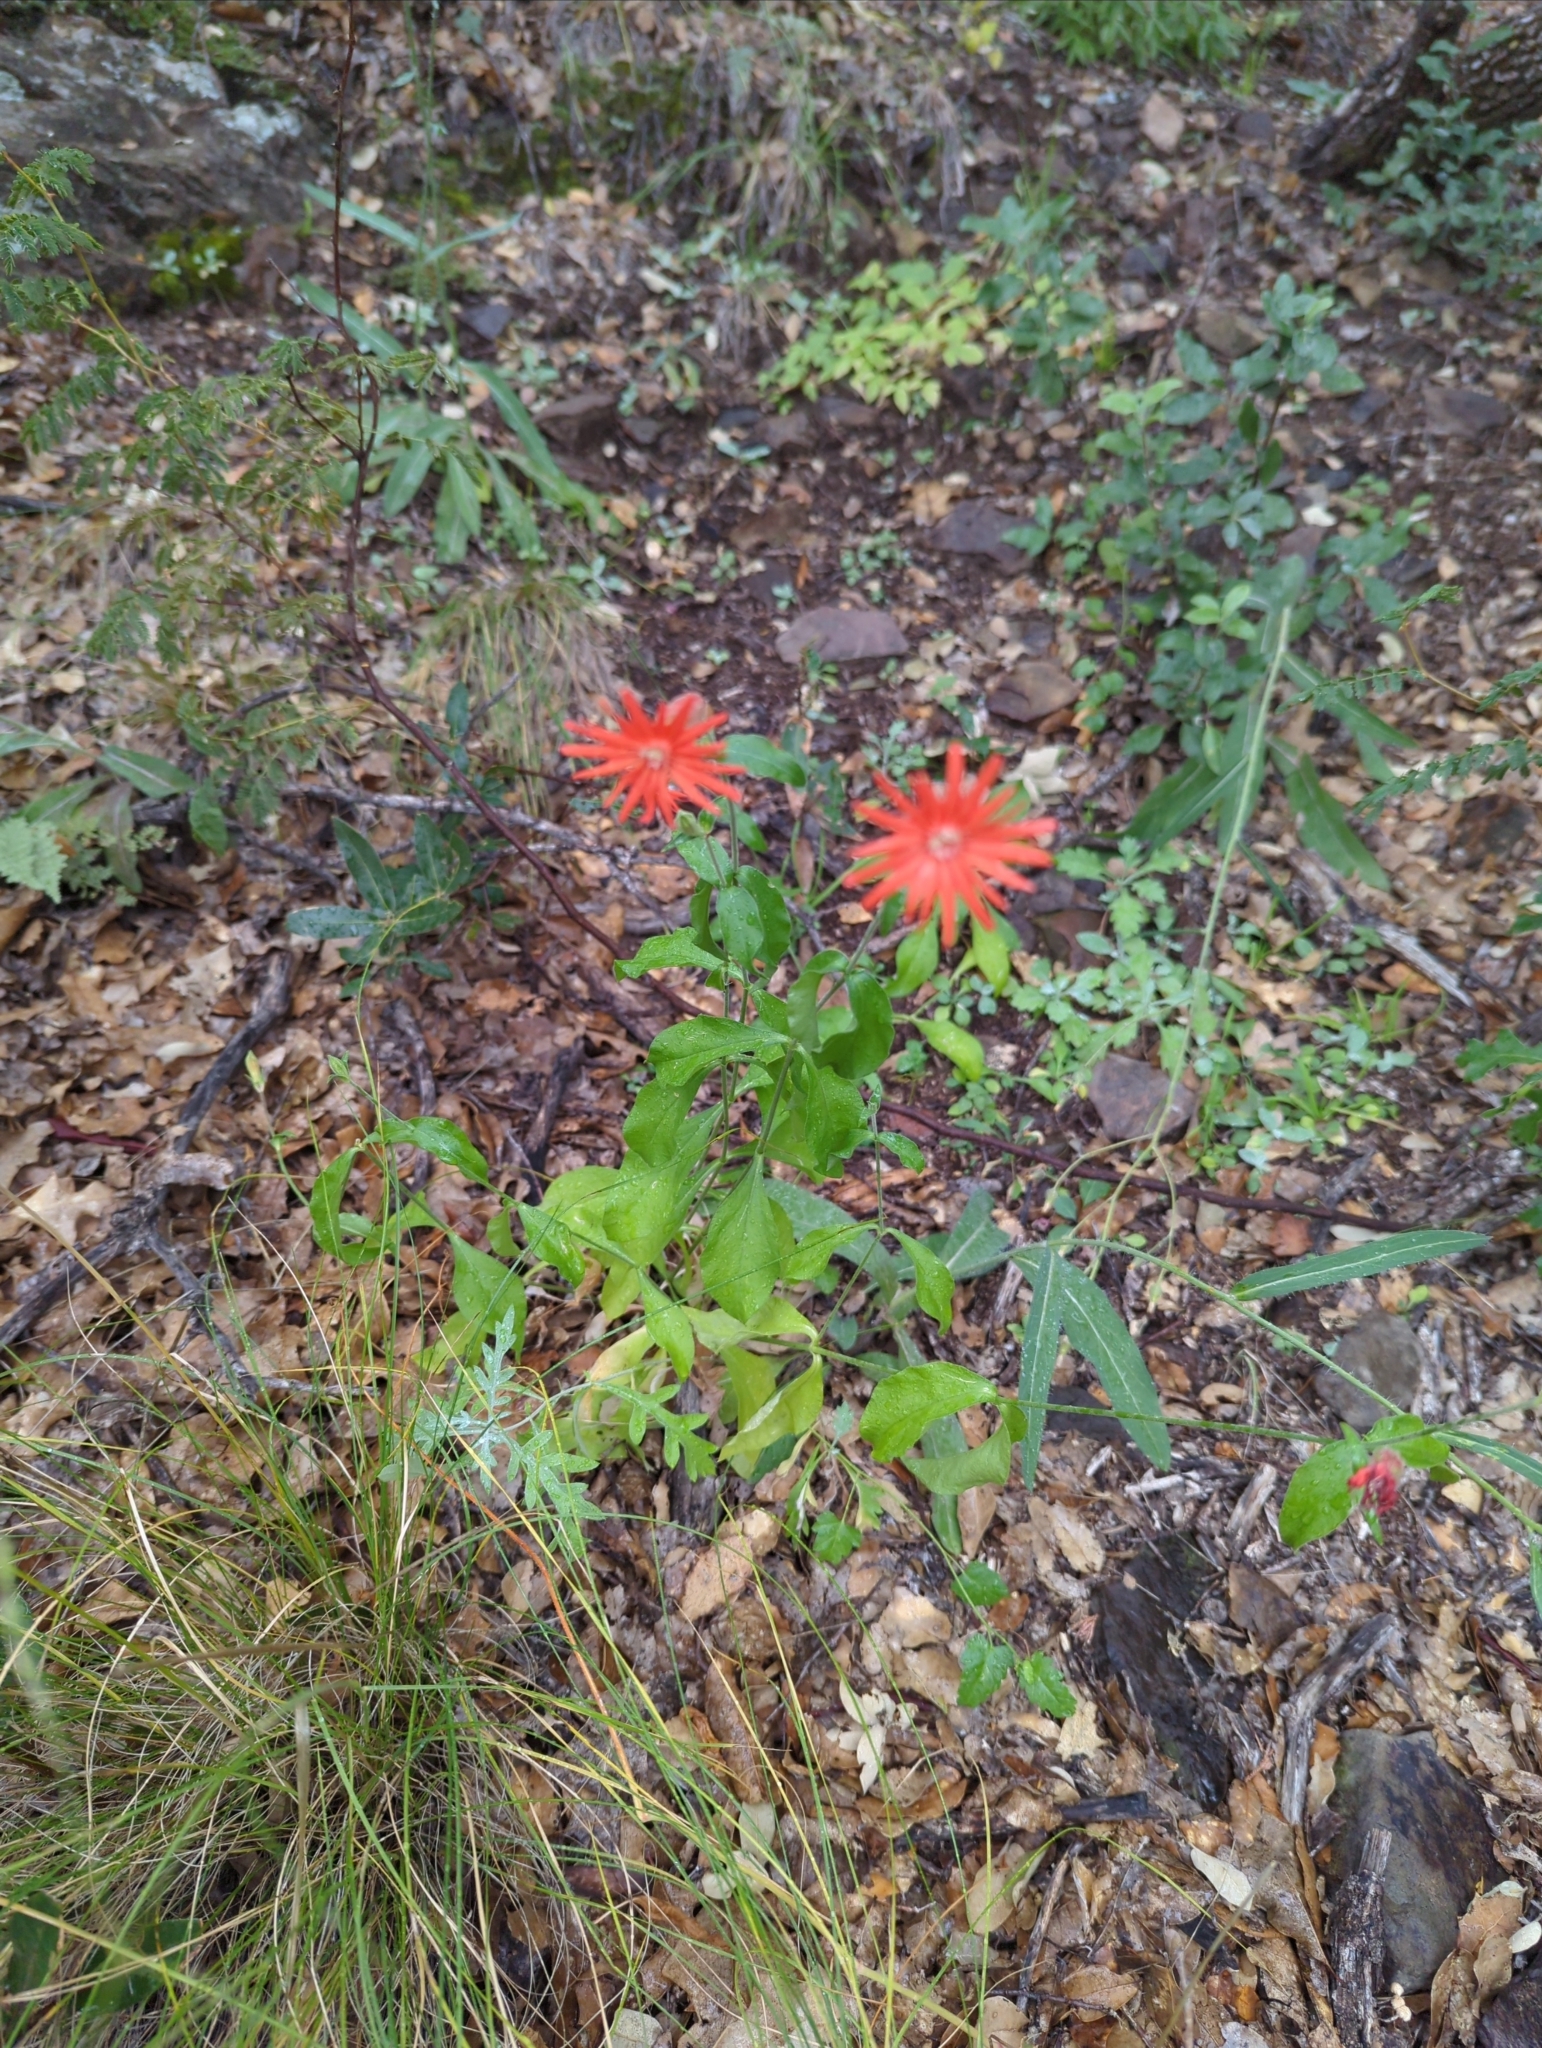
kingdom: Plantae
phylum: Tracheophyta
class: Magnoliopsida
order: Caryophyllales
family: Caryophyllaceae
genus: Silene
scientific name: Silene laciniata
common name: Indian-pink
